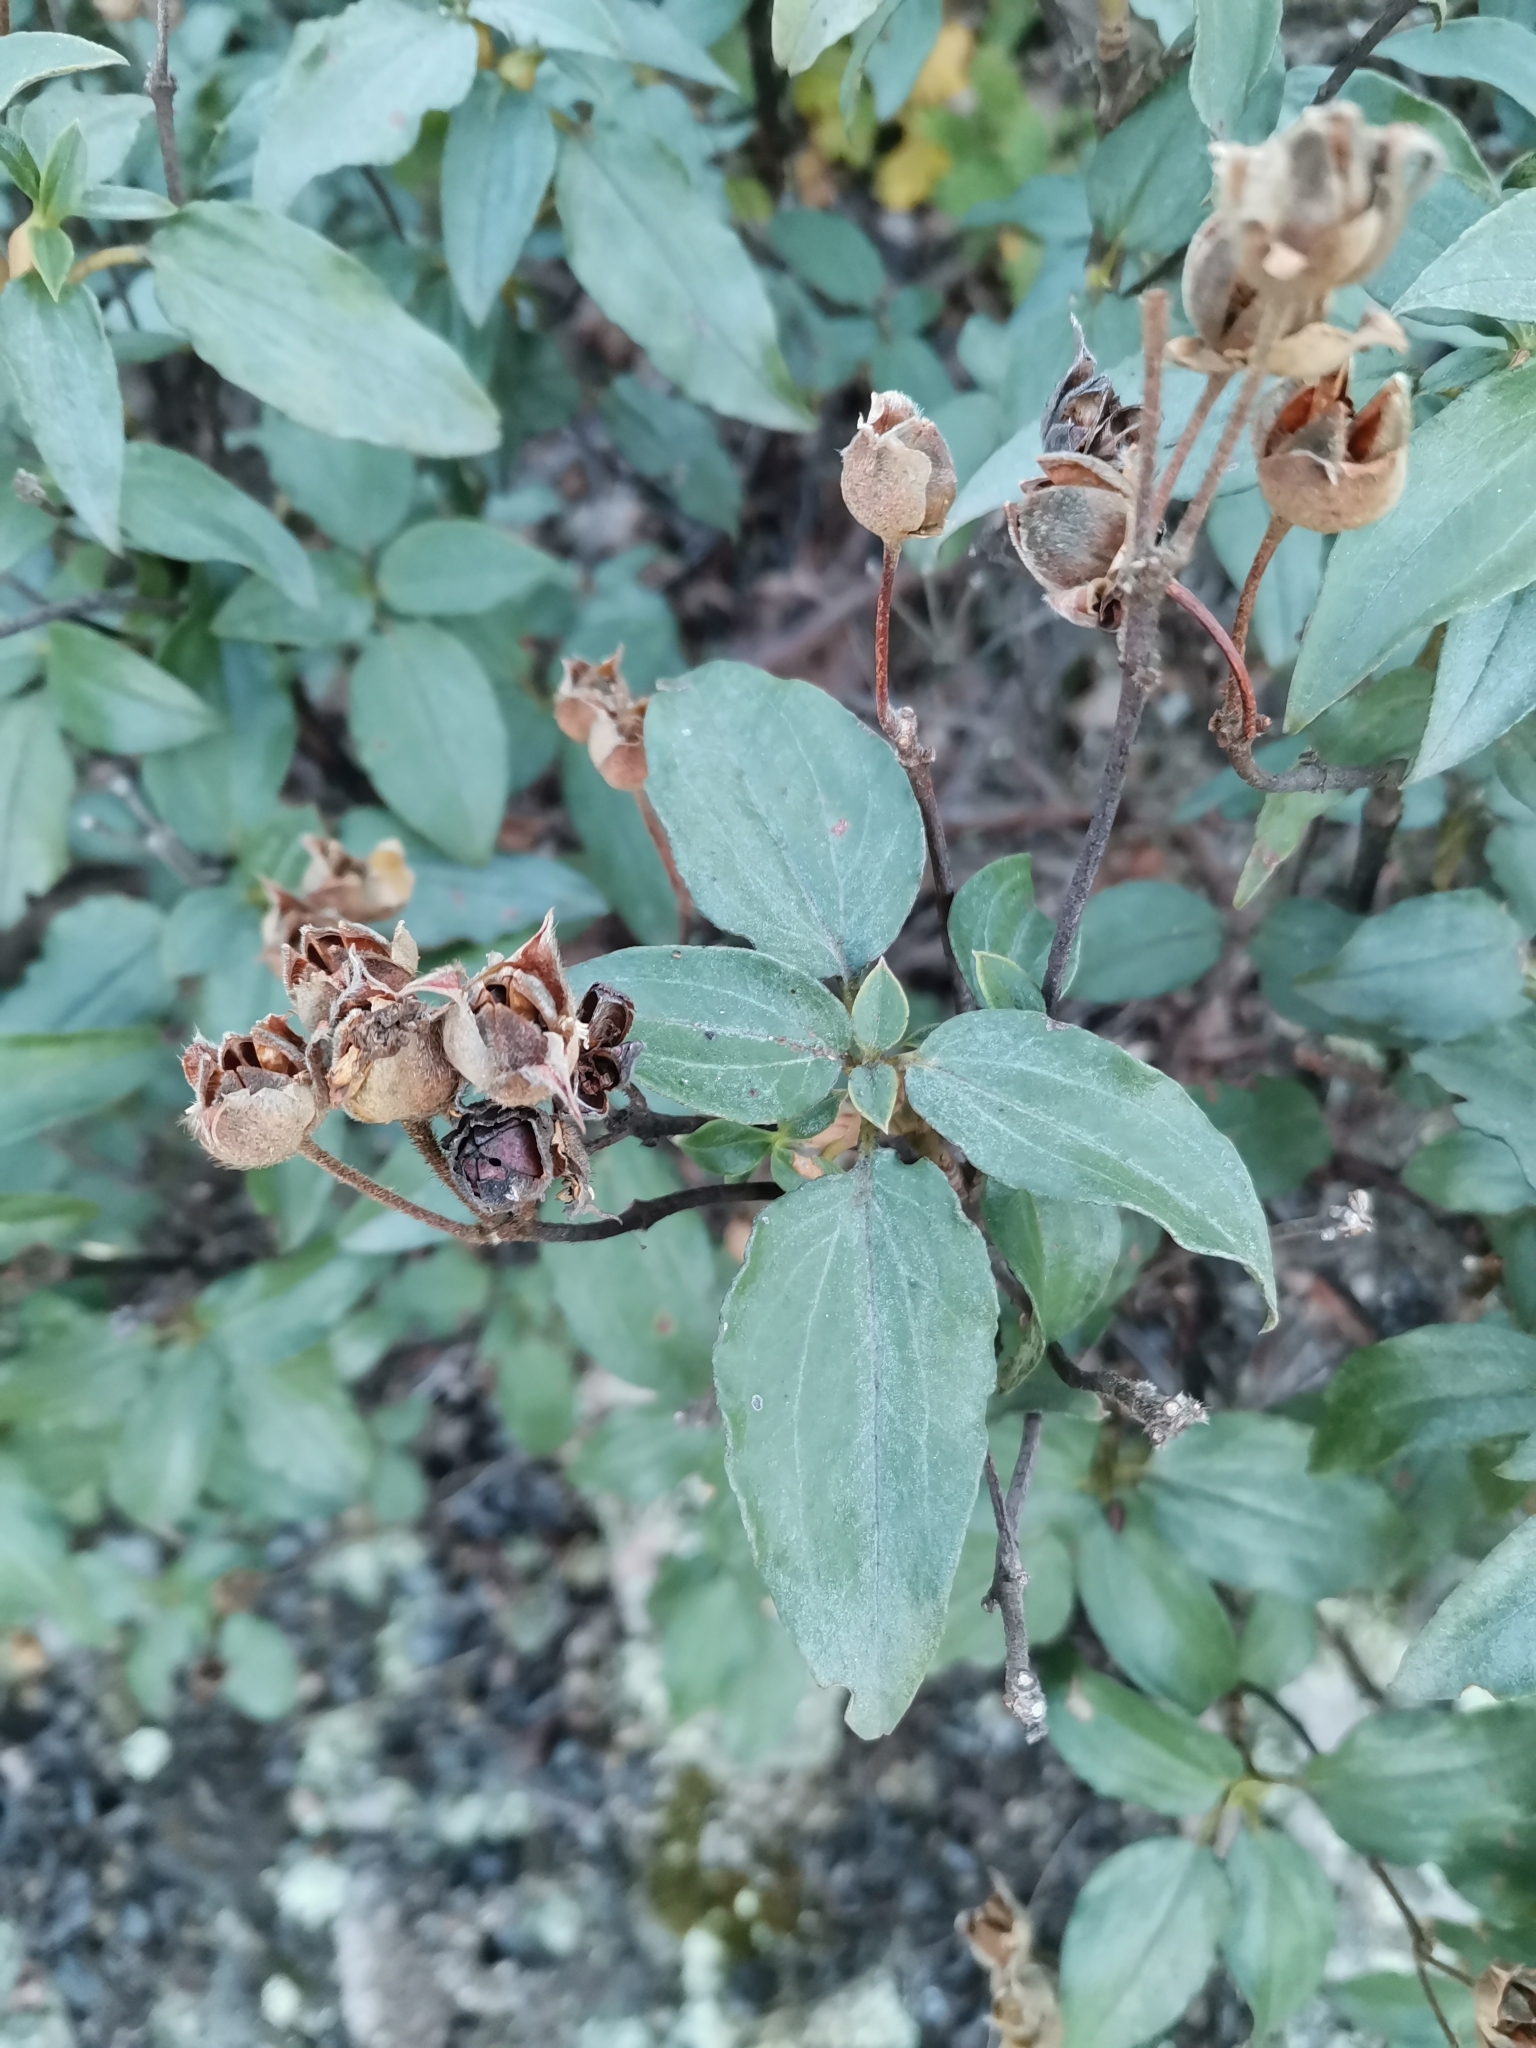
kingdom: Plantae
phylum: Tracheophyta
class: Magnoliopsida
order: Malvales
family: Cistaceae
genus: Cistus
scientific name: Cistus laurifolius
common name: Laurel-leaved cistus
